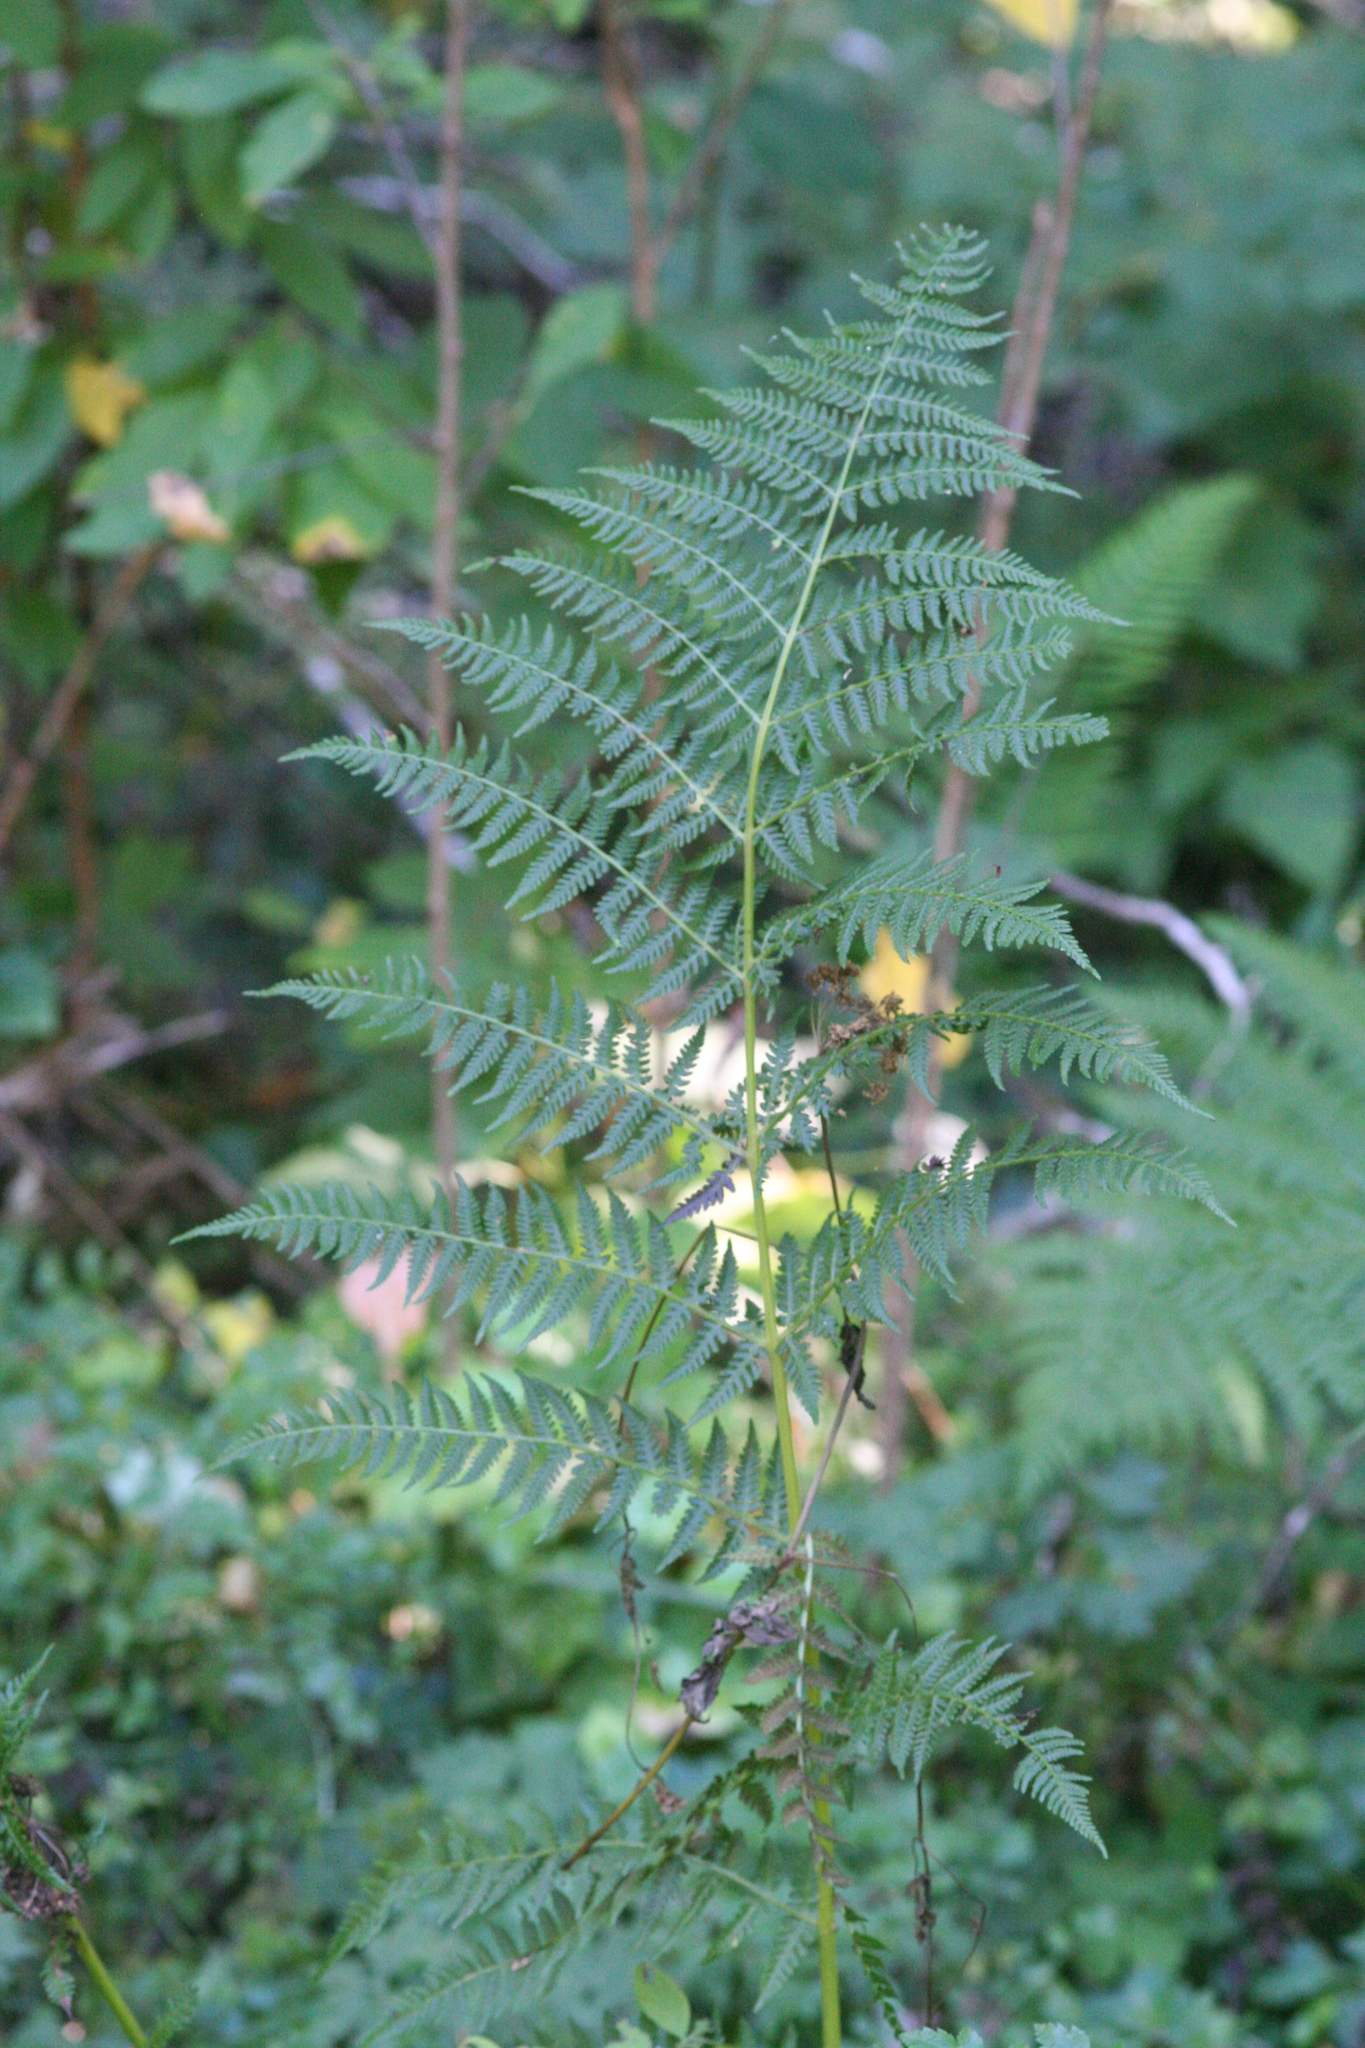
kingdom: Plantae
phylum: Tracheophyta
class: Polypodiopsida
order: Polypodiales
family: Athyriaceae
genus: Athyrium
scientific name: Athyrium cyclosorum
